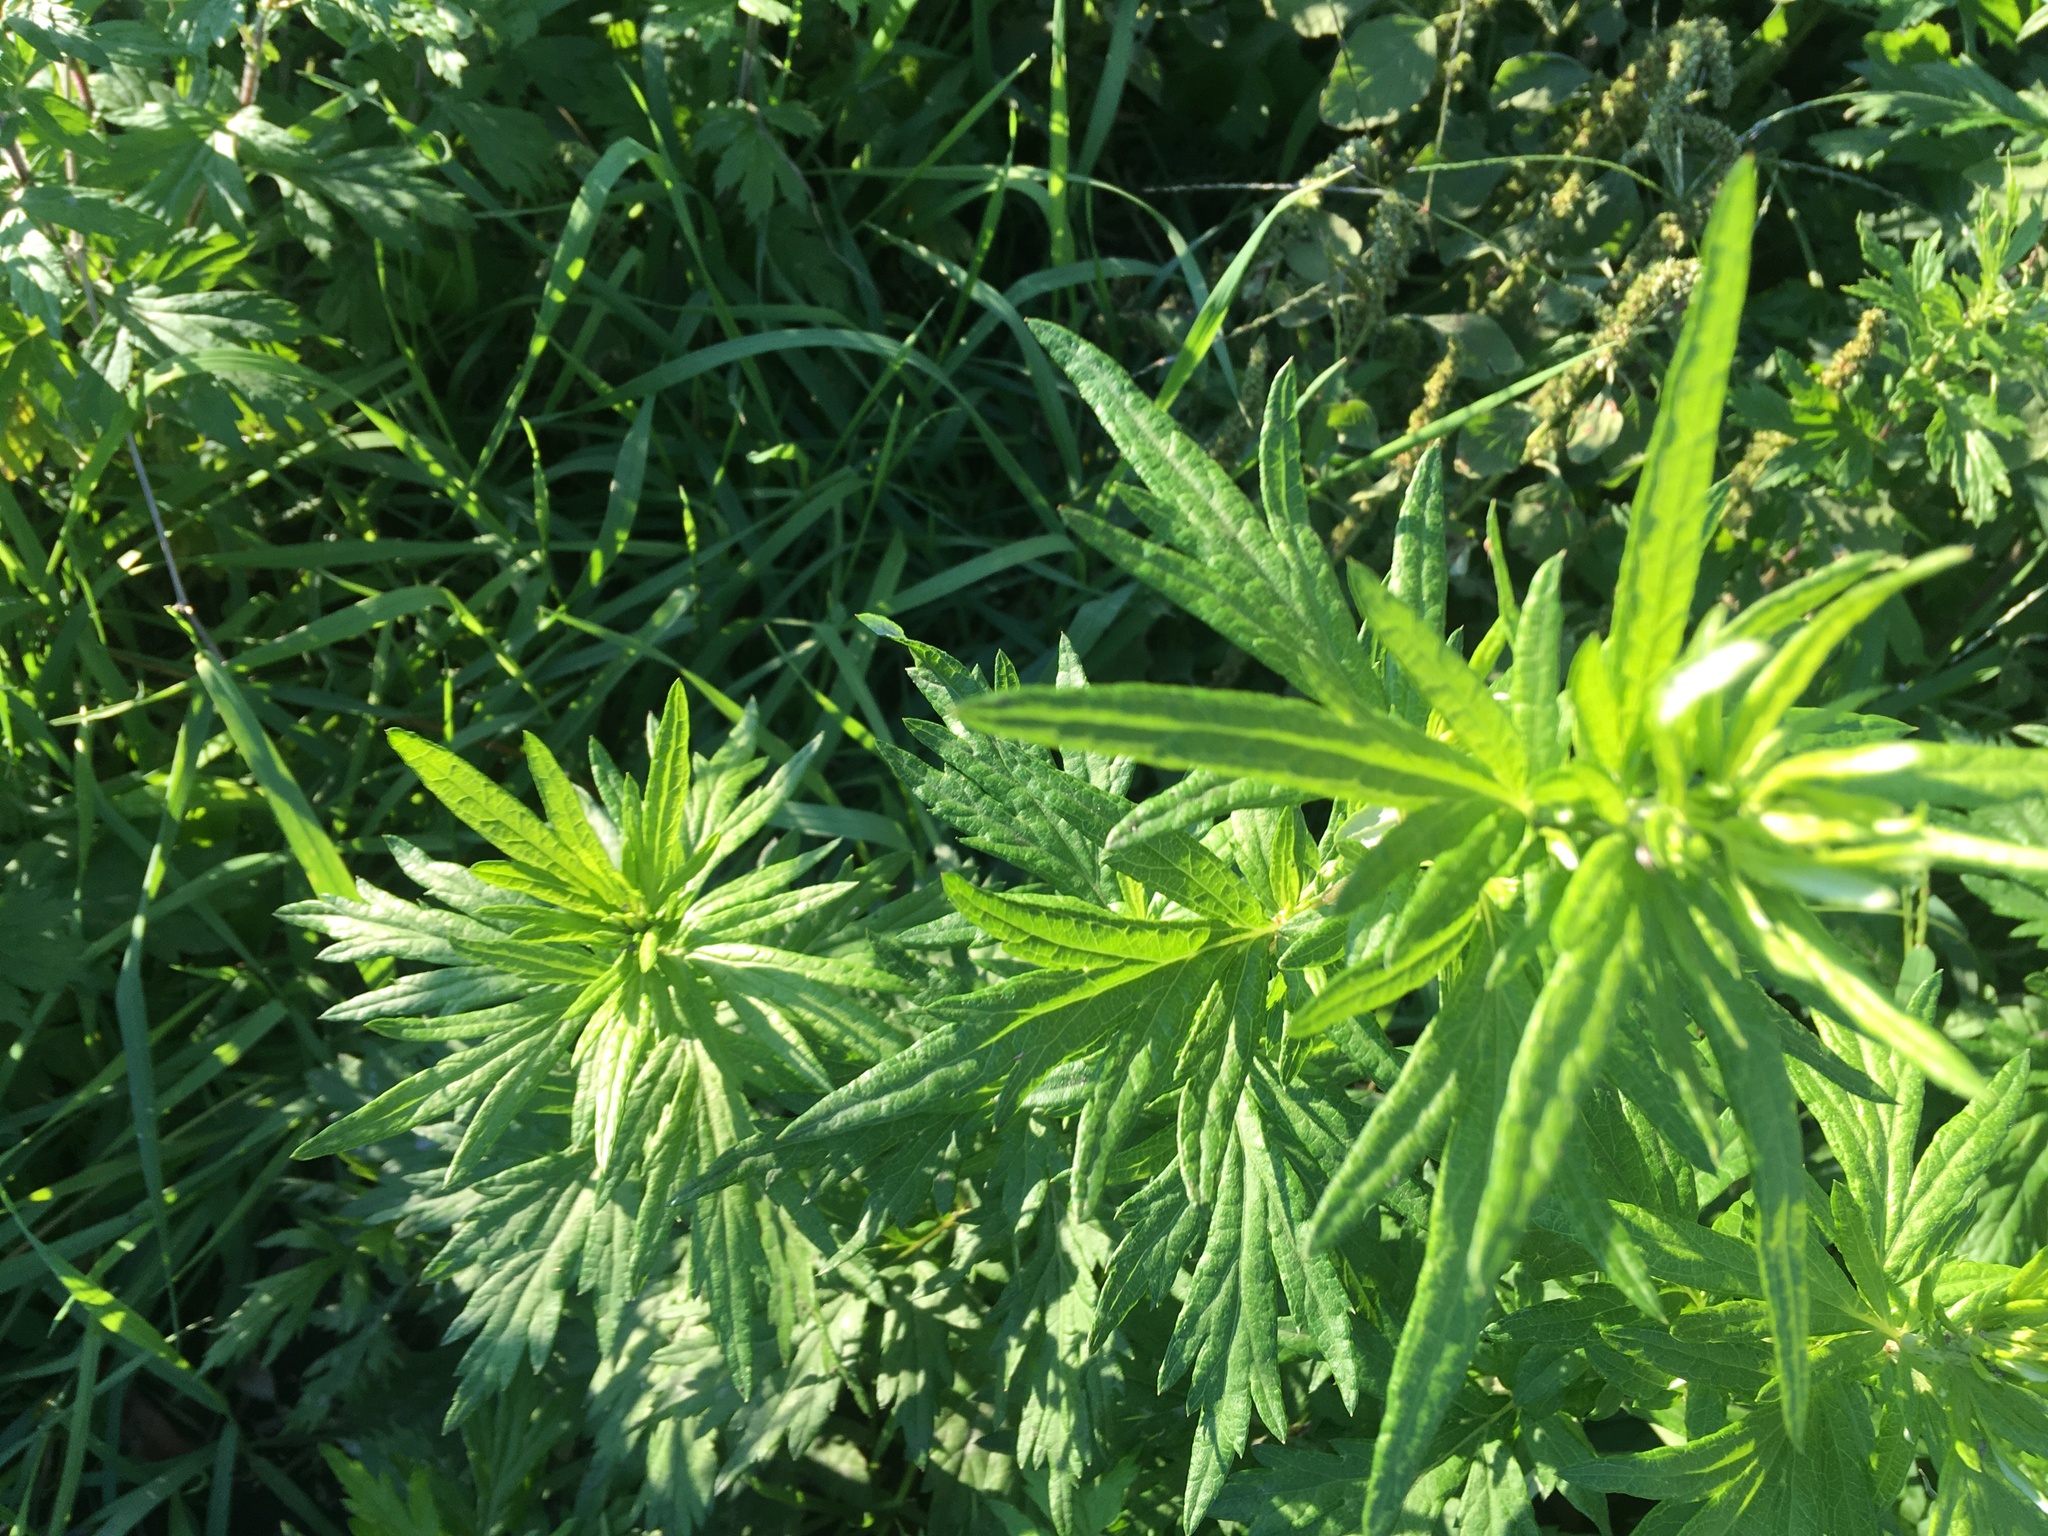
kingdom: Plantae
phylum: Tracheophyta
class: Magnoliopsida
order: Asterales
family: Asteraceae
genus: Artemisia
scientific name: Artemisia vulgaris
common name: Mugwort
